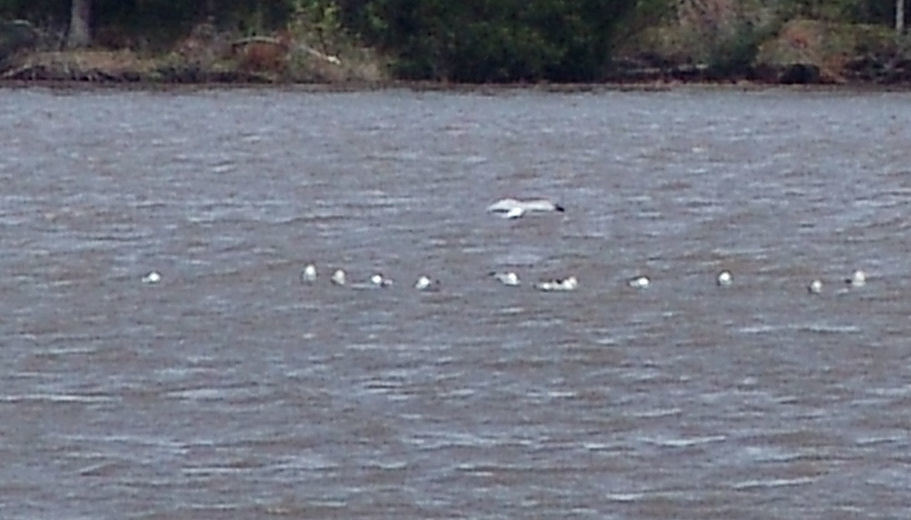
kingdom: Animalia
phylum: Chordata
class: Aves
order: Charadriiformes
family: Laridae
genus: Larus
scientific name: Larus delawarensis
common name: Ring-billed gull
